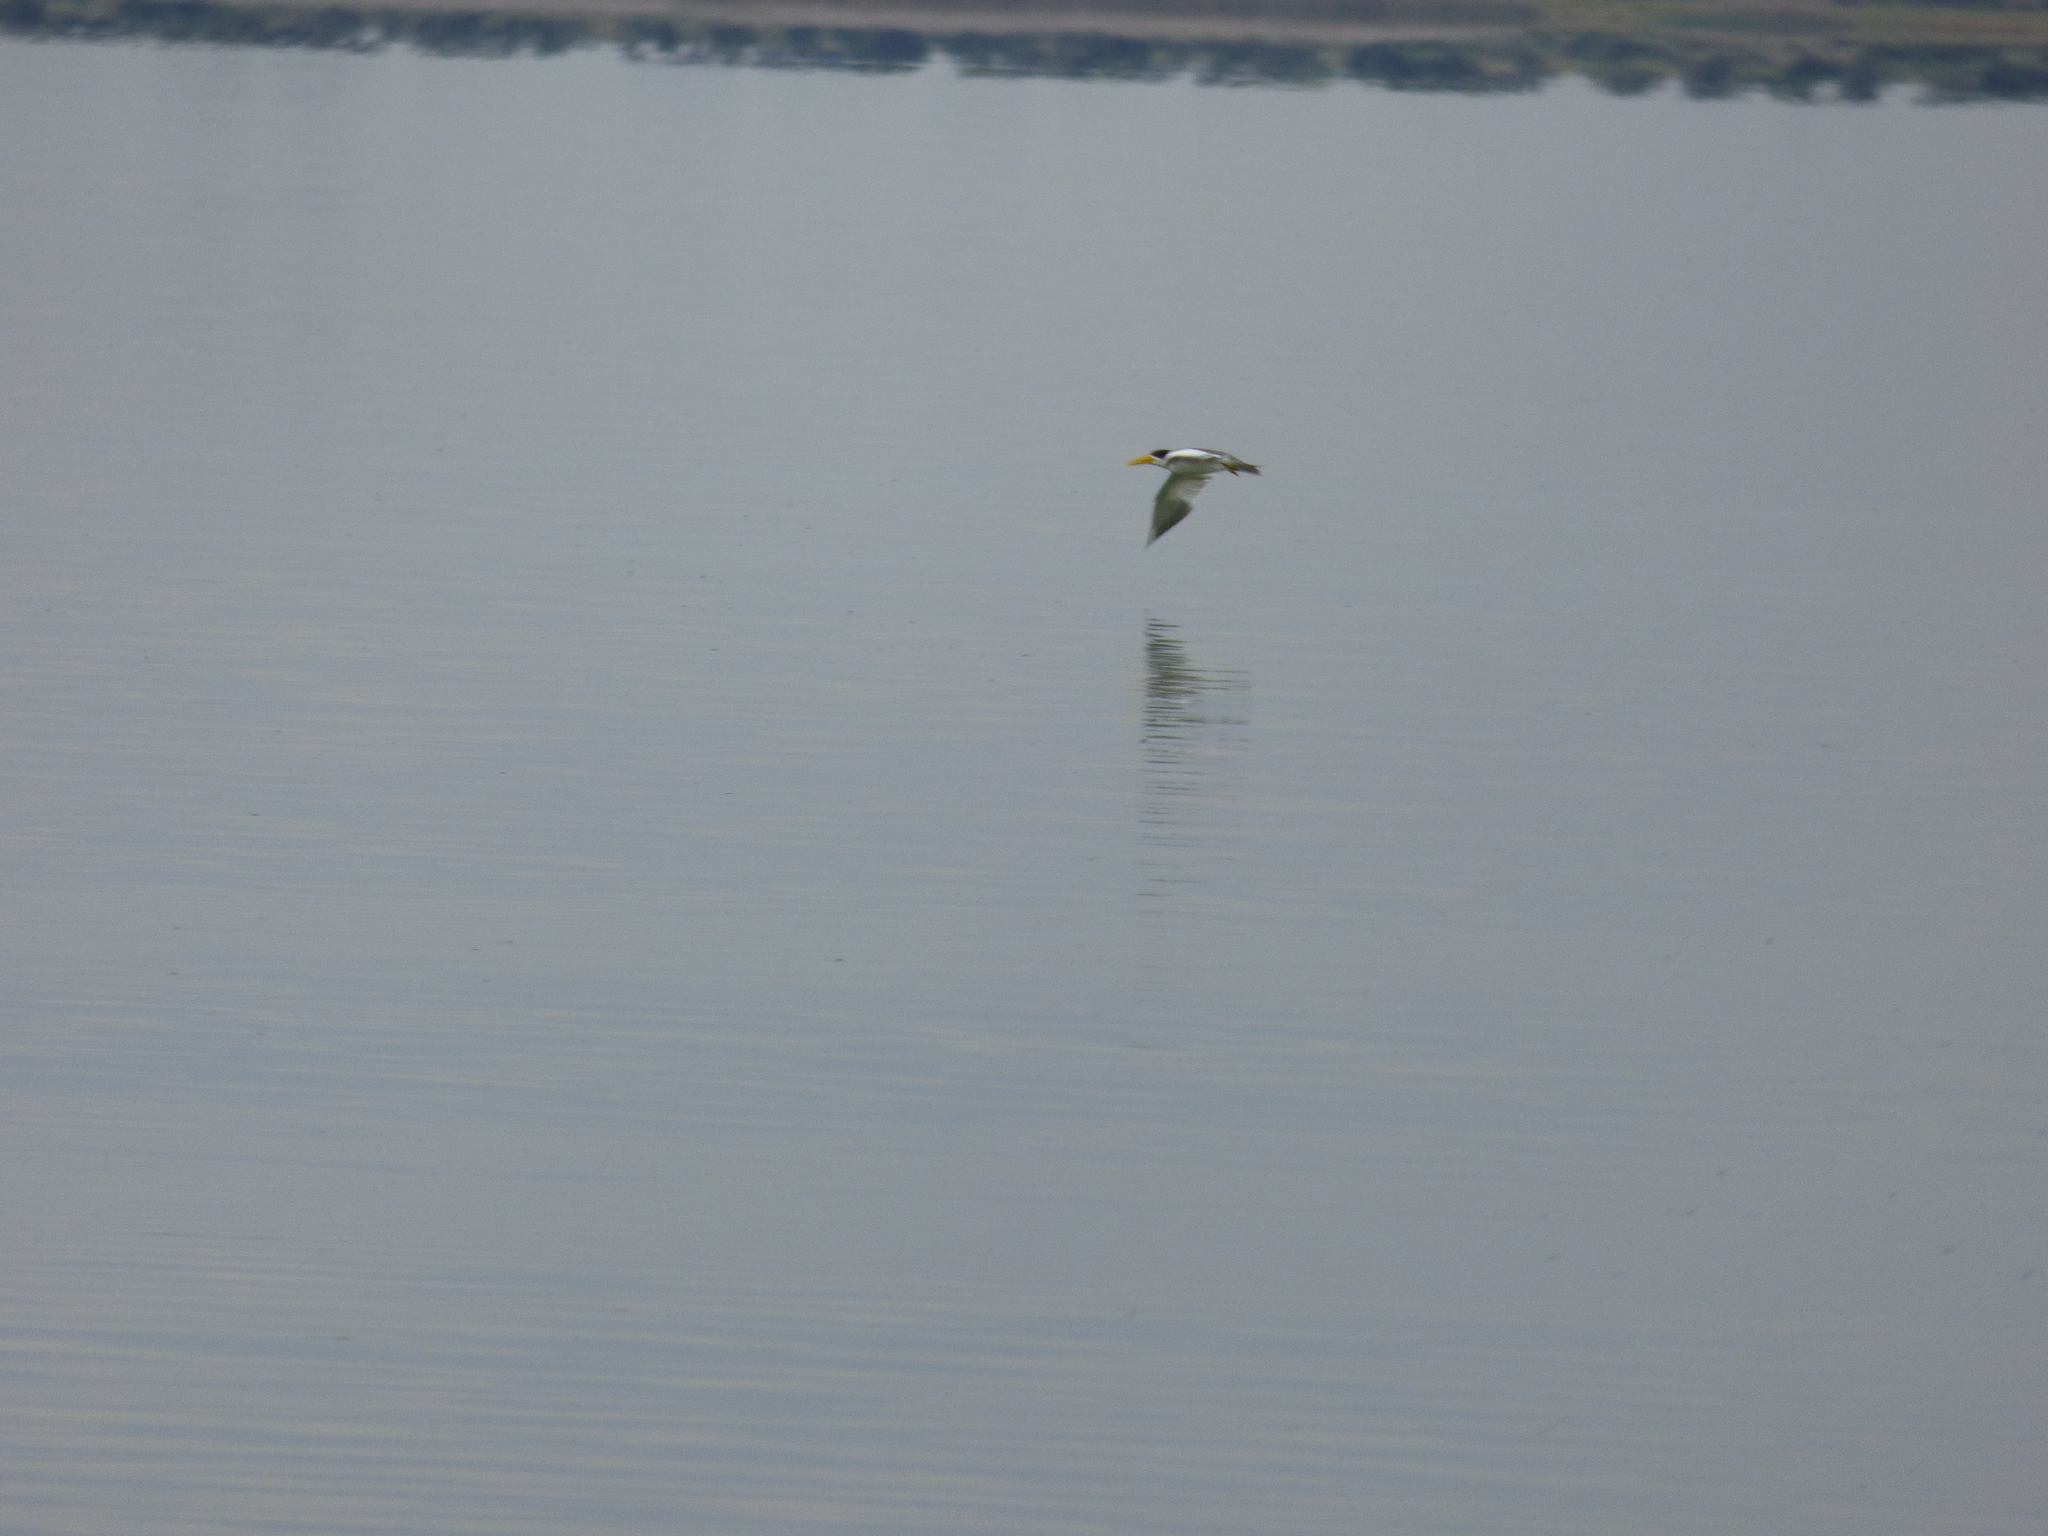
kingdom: Animalia
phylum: Chordata
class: Aves
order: Charadriiformes
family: Laridae
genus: Phaetusa
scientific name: Phaetusa simplex
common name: Large-billed tern
